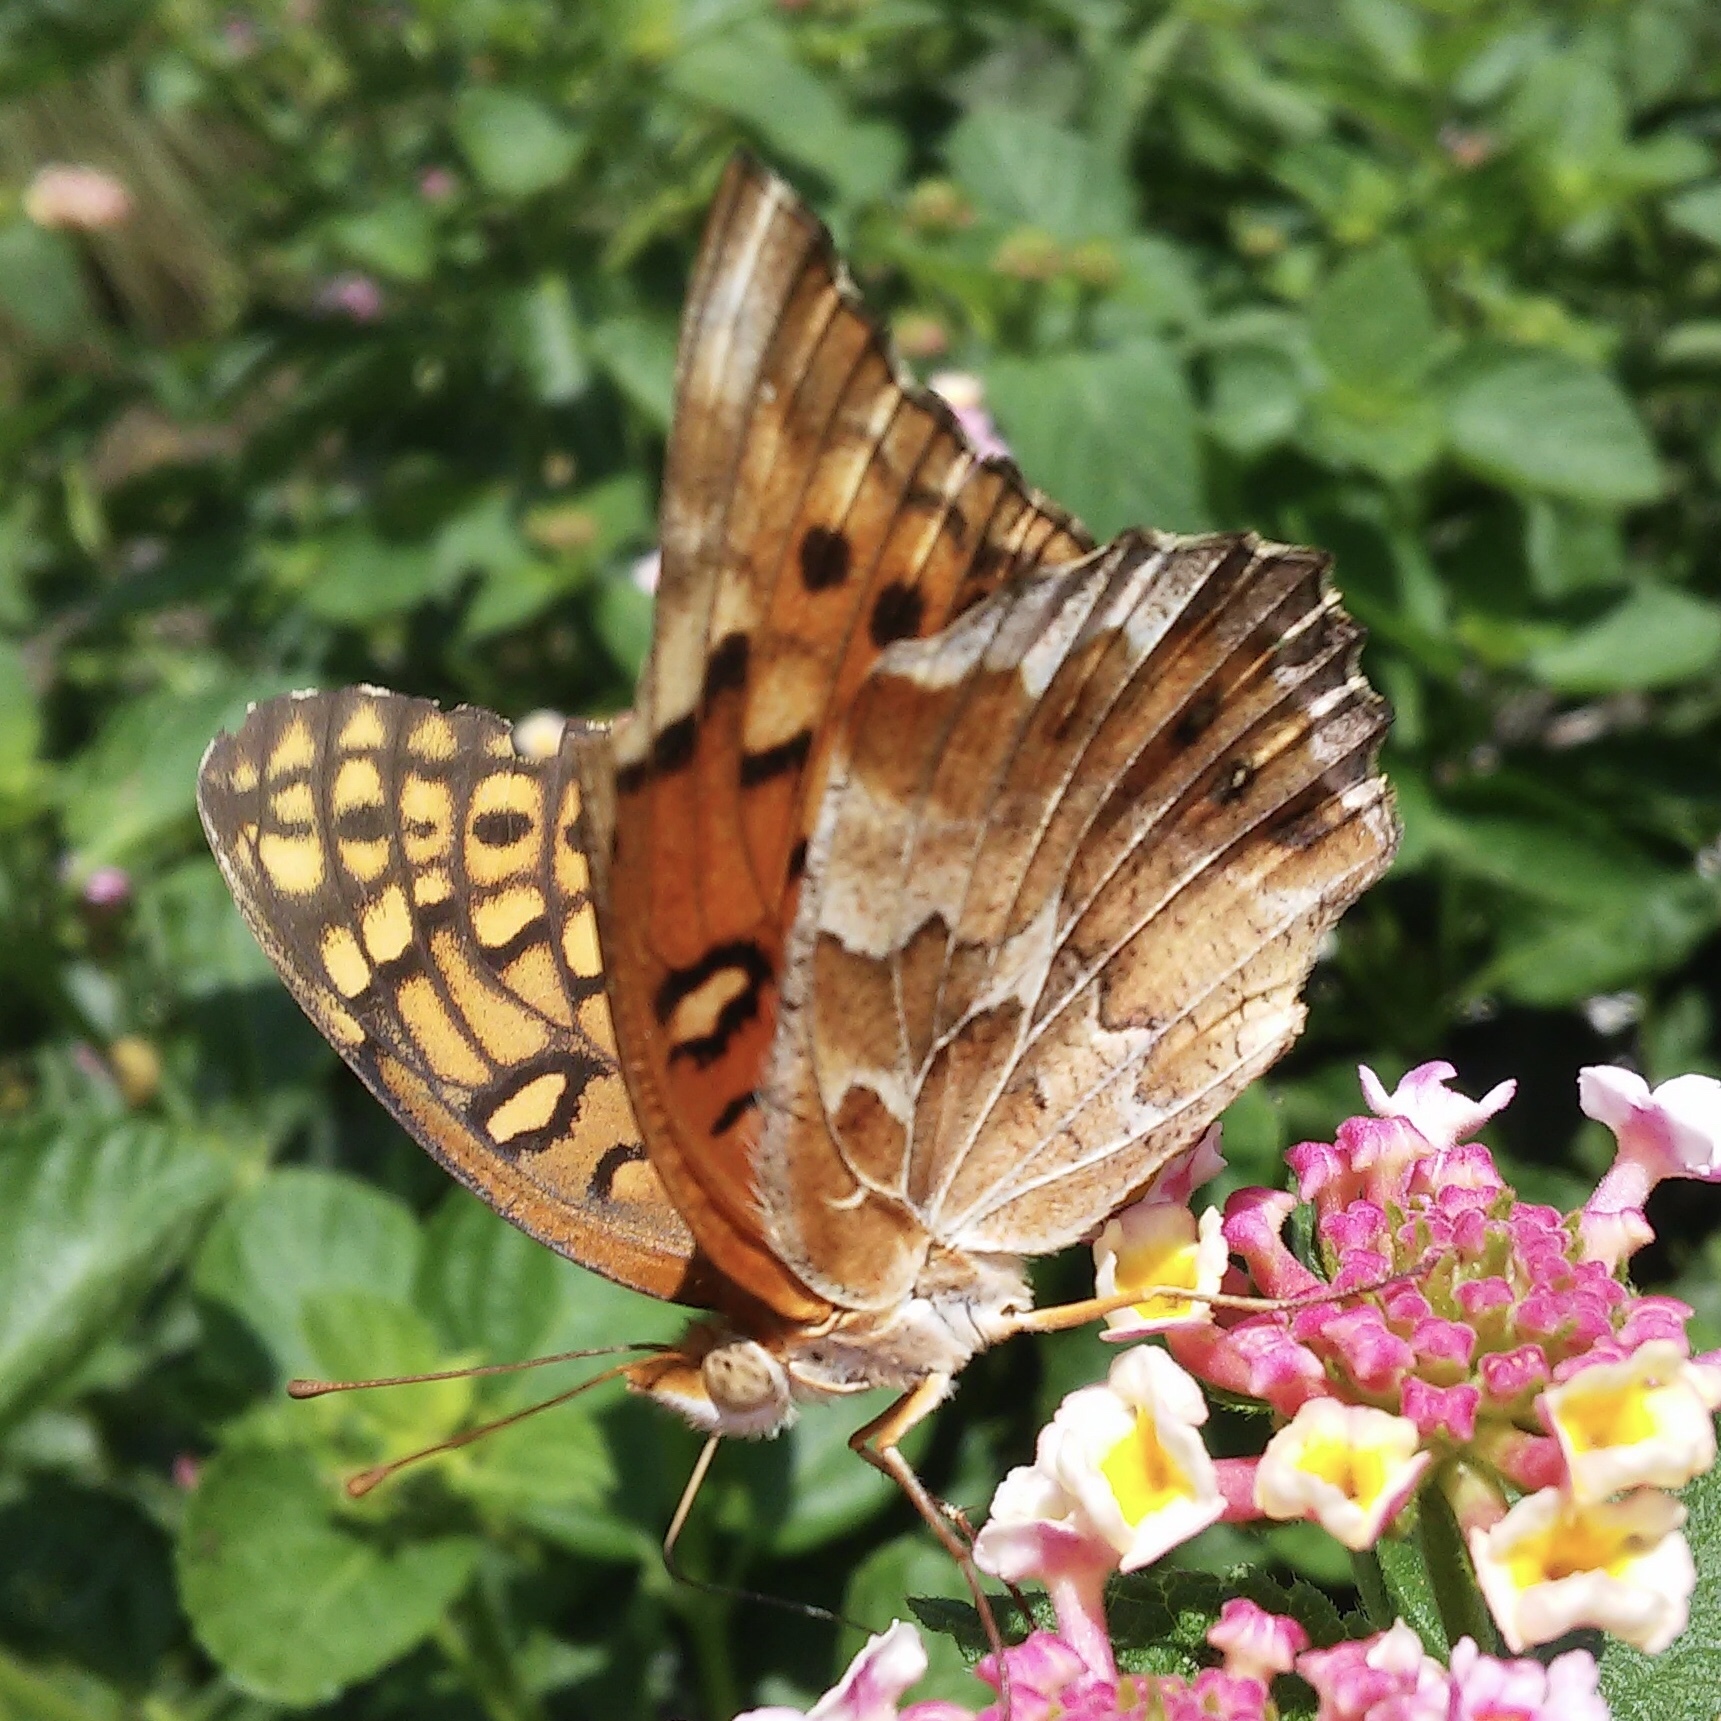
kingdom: Animalia
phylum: Arthropoda
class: Insecta
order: Lepidoptera
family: Nymphalidae
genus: Euptoieta
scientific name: Euptoieta claudia
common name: Variegated fritillary
